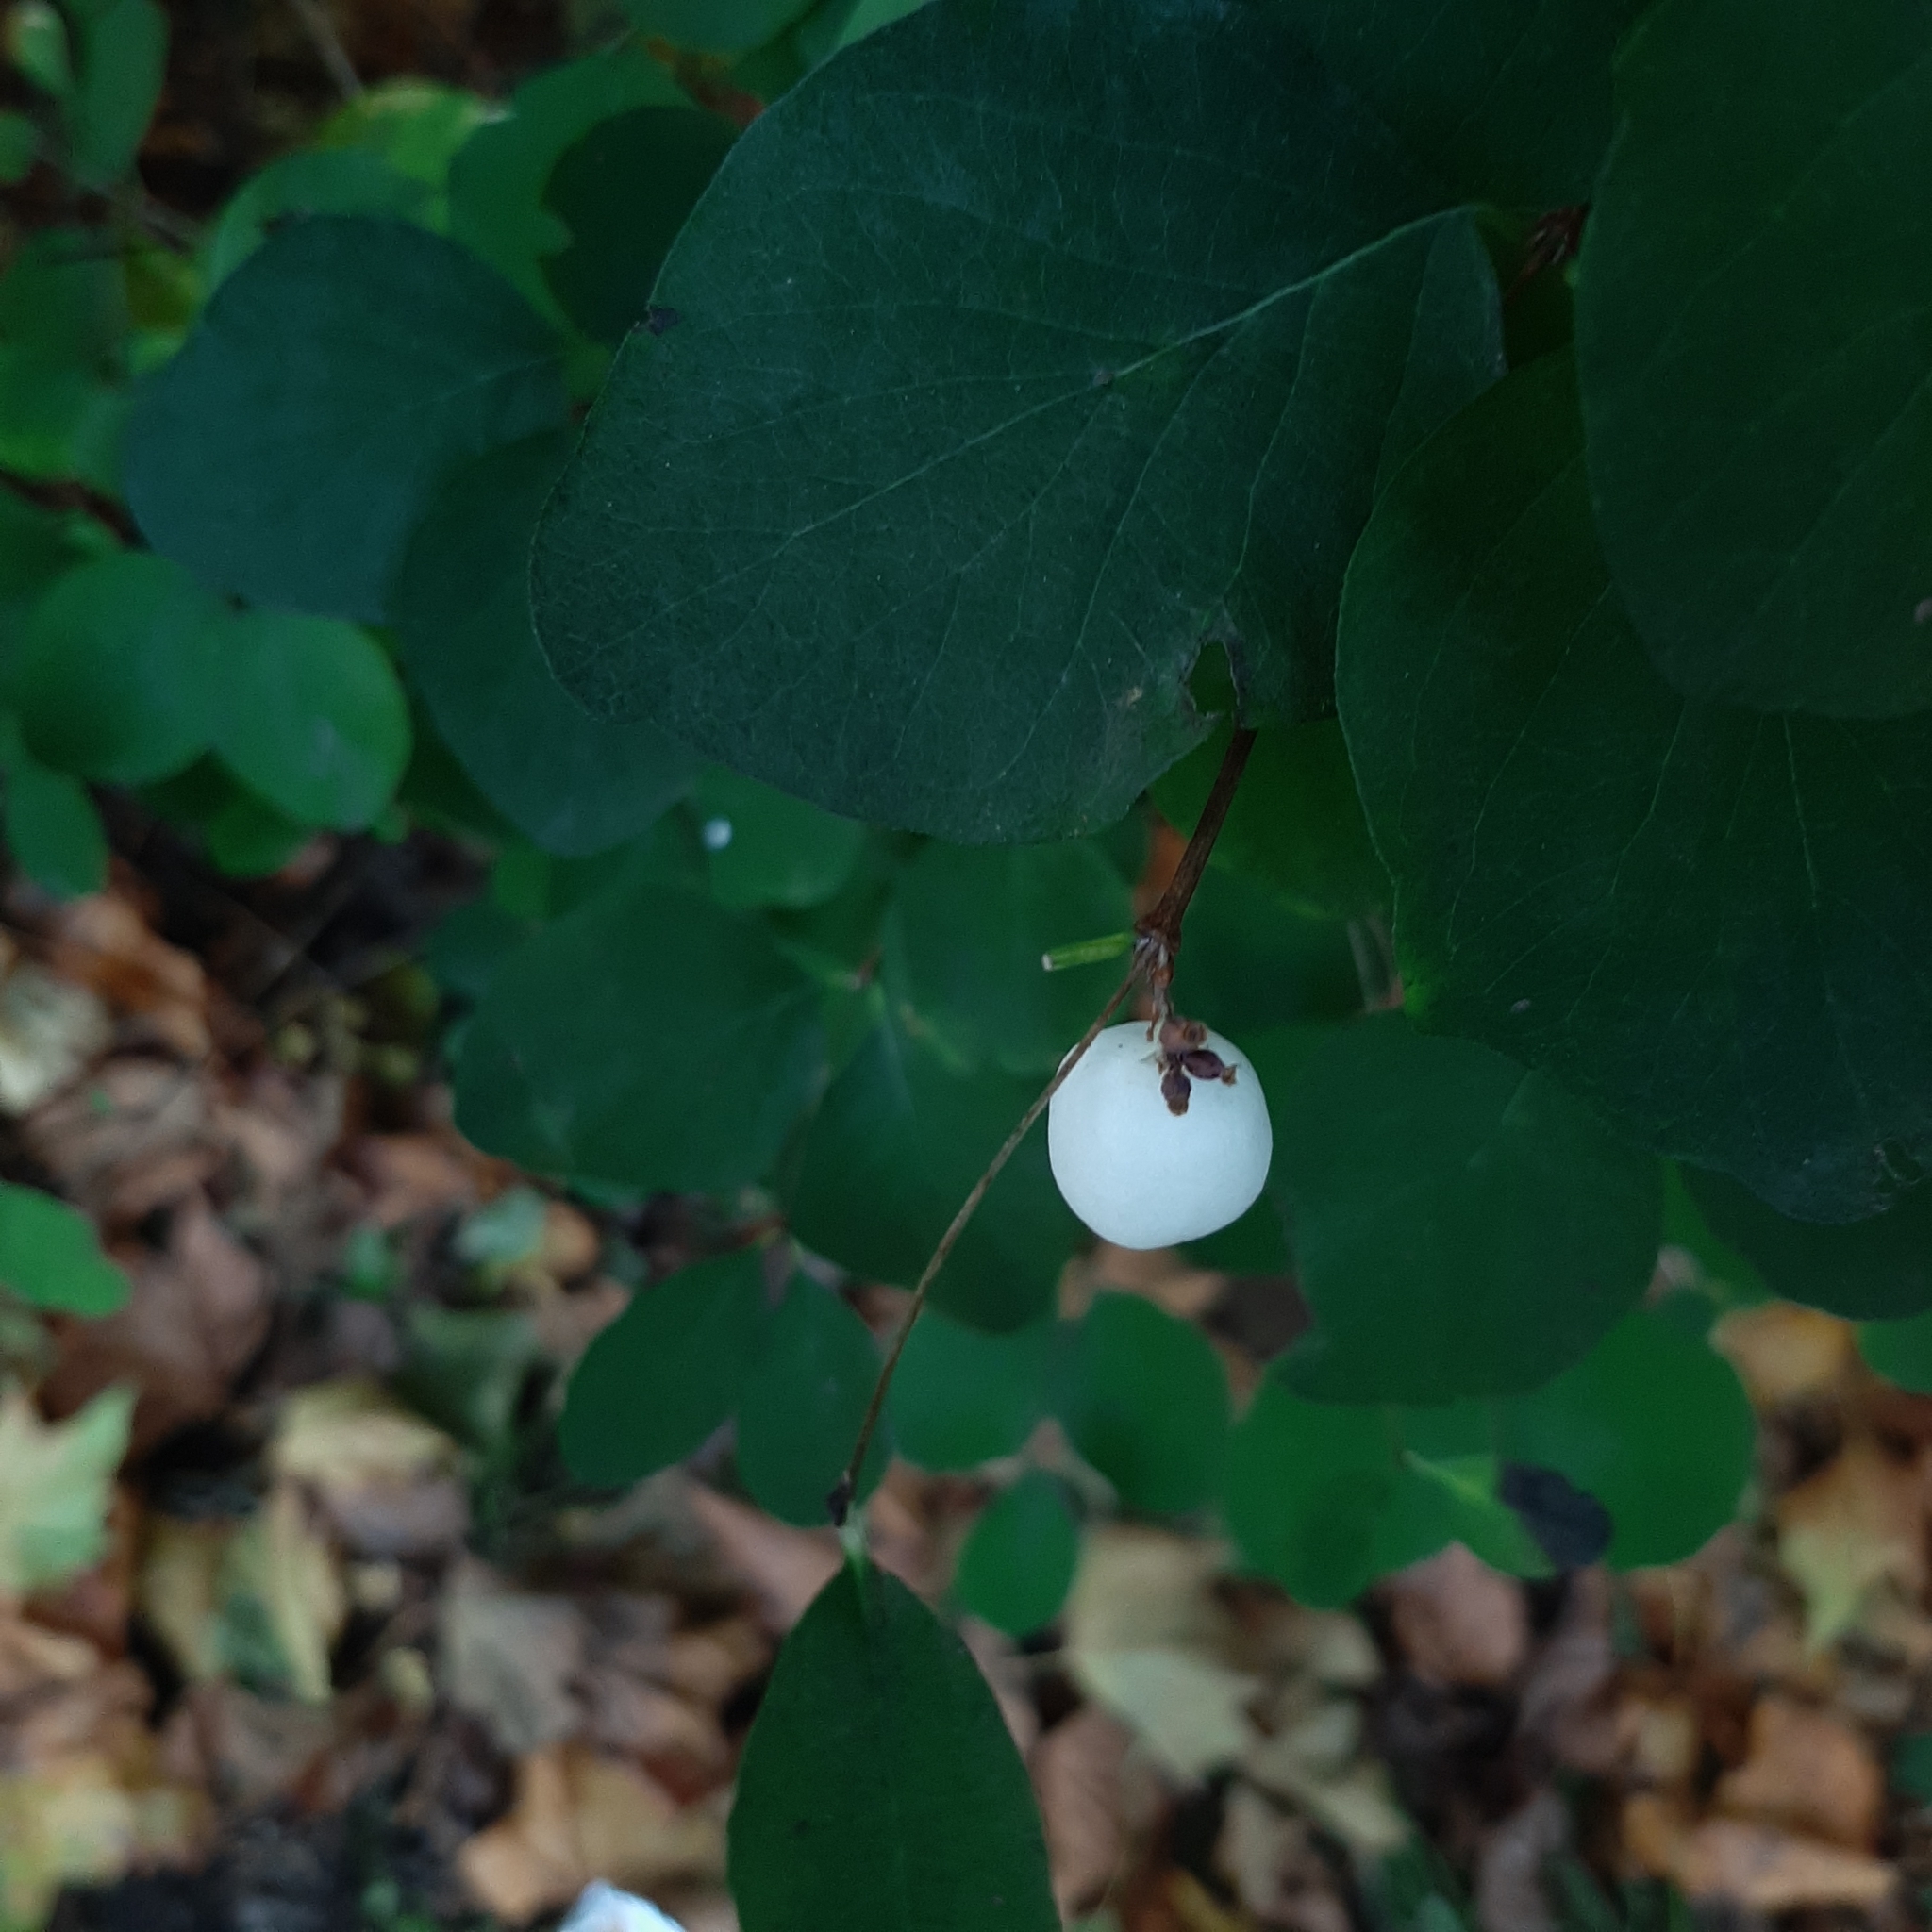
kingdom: Plantae
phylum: Tracheophyta
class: Magnoliopsida
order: Dipsacales
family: Caprifoliaceae
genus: Symphoricarpos
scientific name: Symphoricarpos albus
